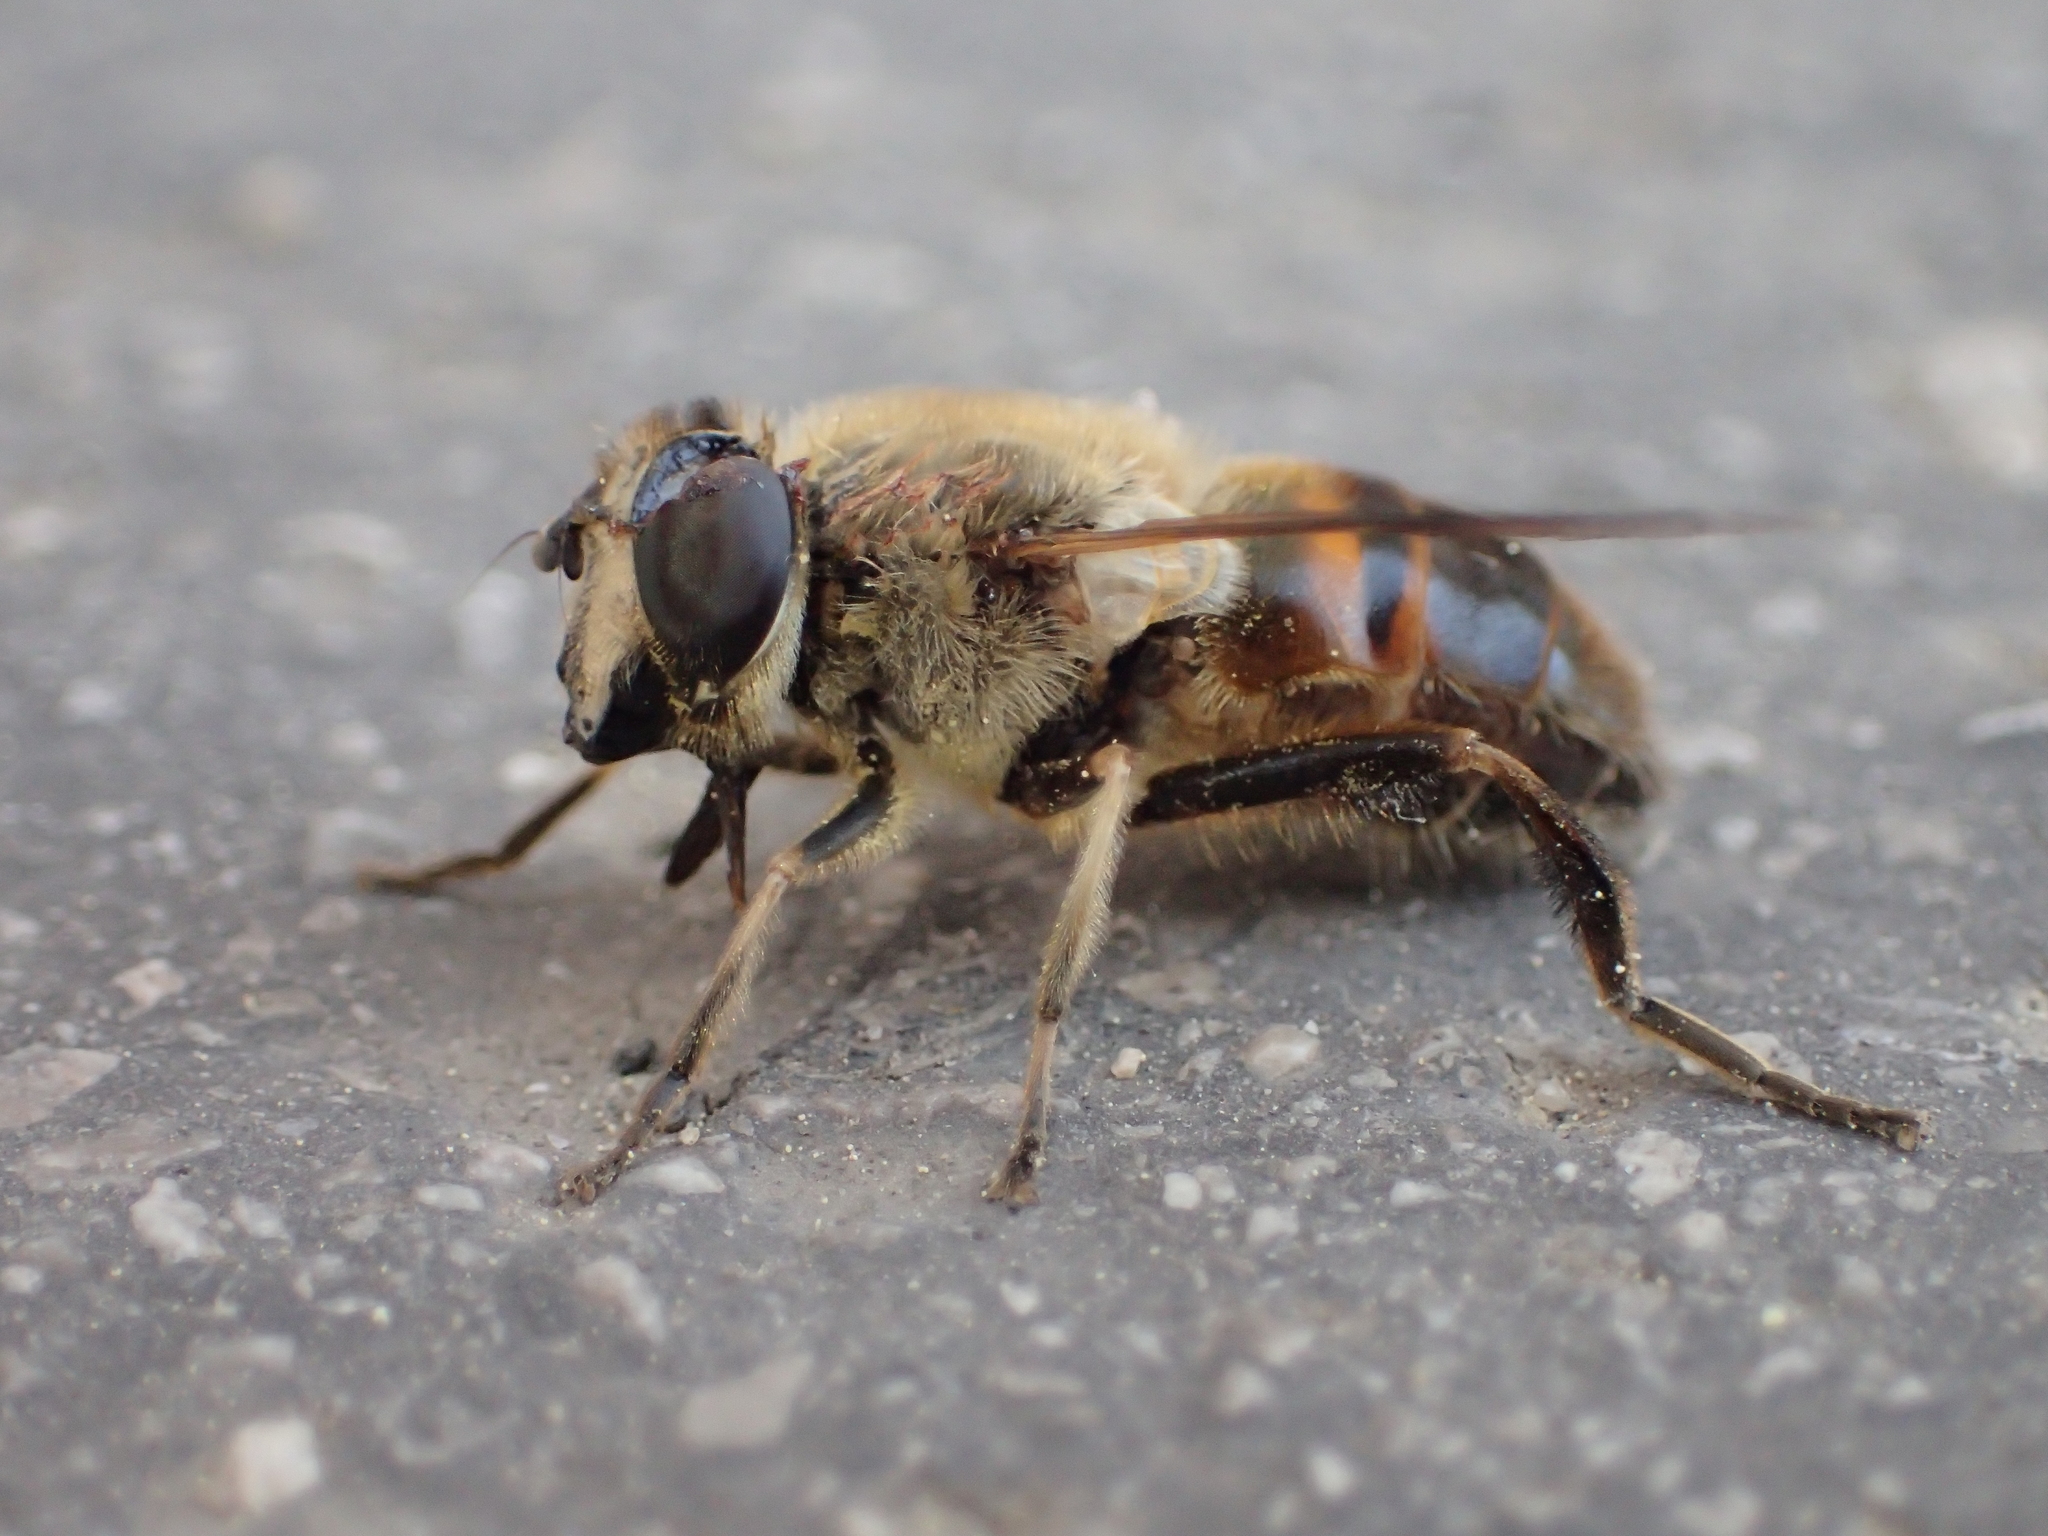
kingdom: Animalia
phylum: Arthropoda
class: Insecta
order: Diptera
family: Syrphidae
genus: Eristalis
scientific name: Eristalis tenax
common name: Drone fly
